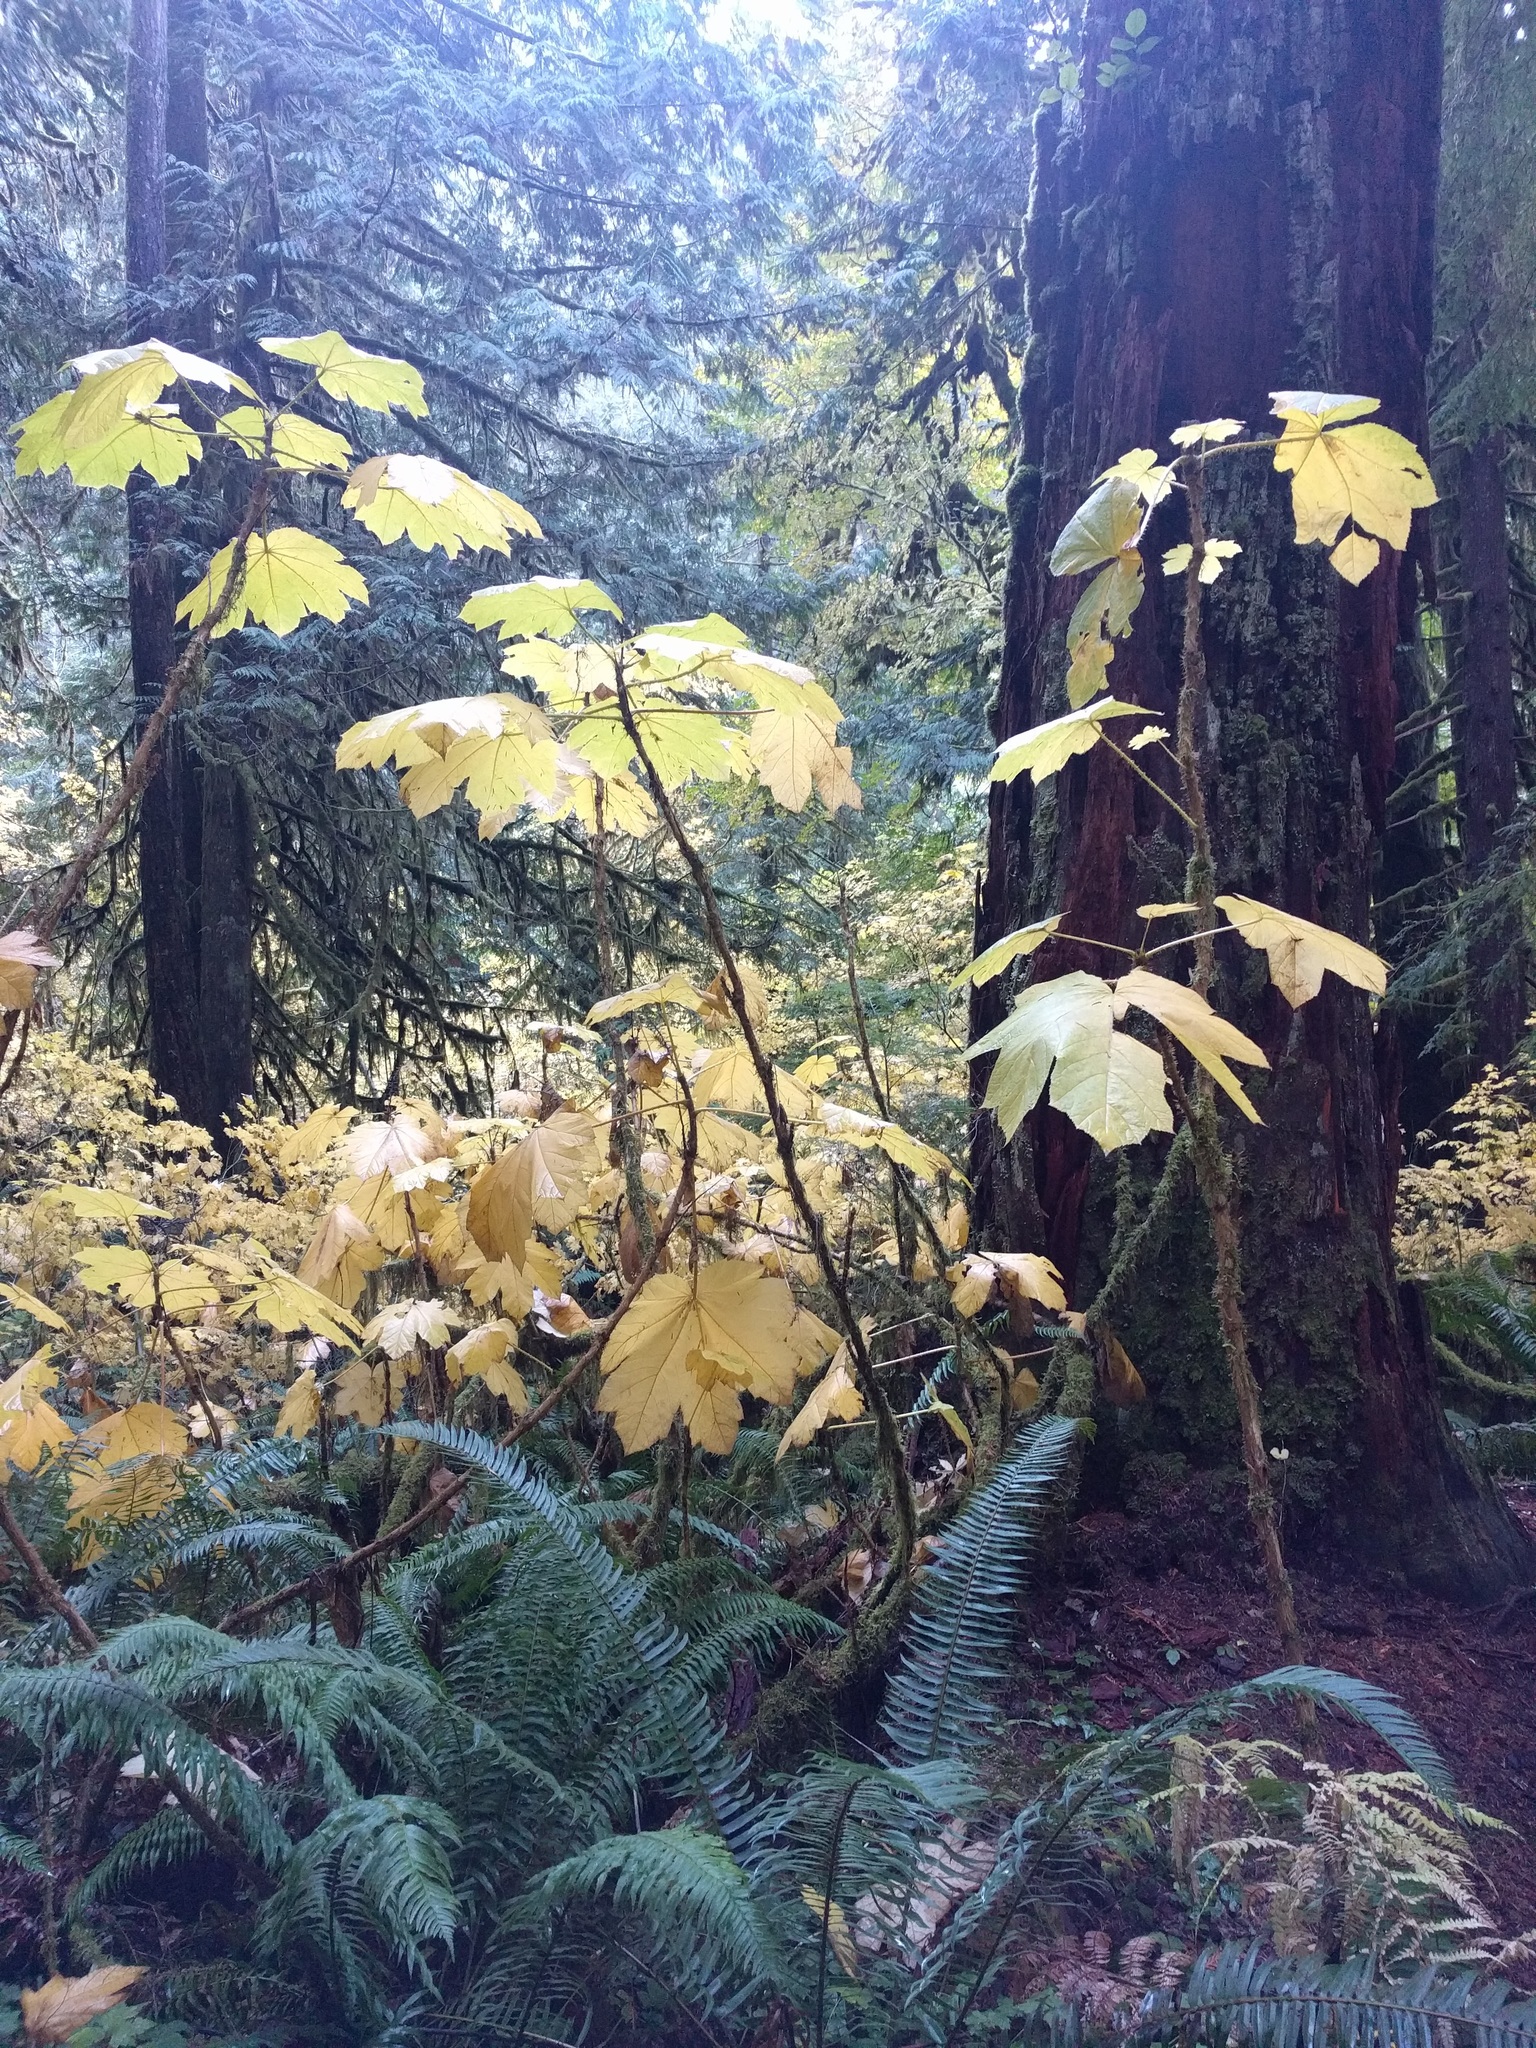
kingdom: Plantae
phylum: Tracheophyta
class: Magnoliopsida
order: Apiales
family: Araliaceae
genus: Oplopanax
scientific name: Oplopanax horridus
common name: Devil's walking-stick
